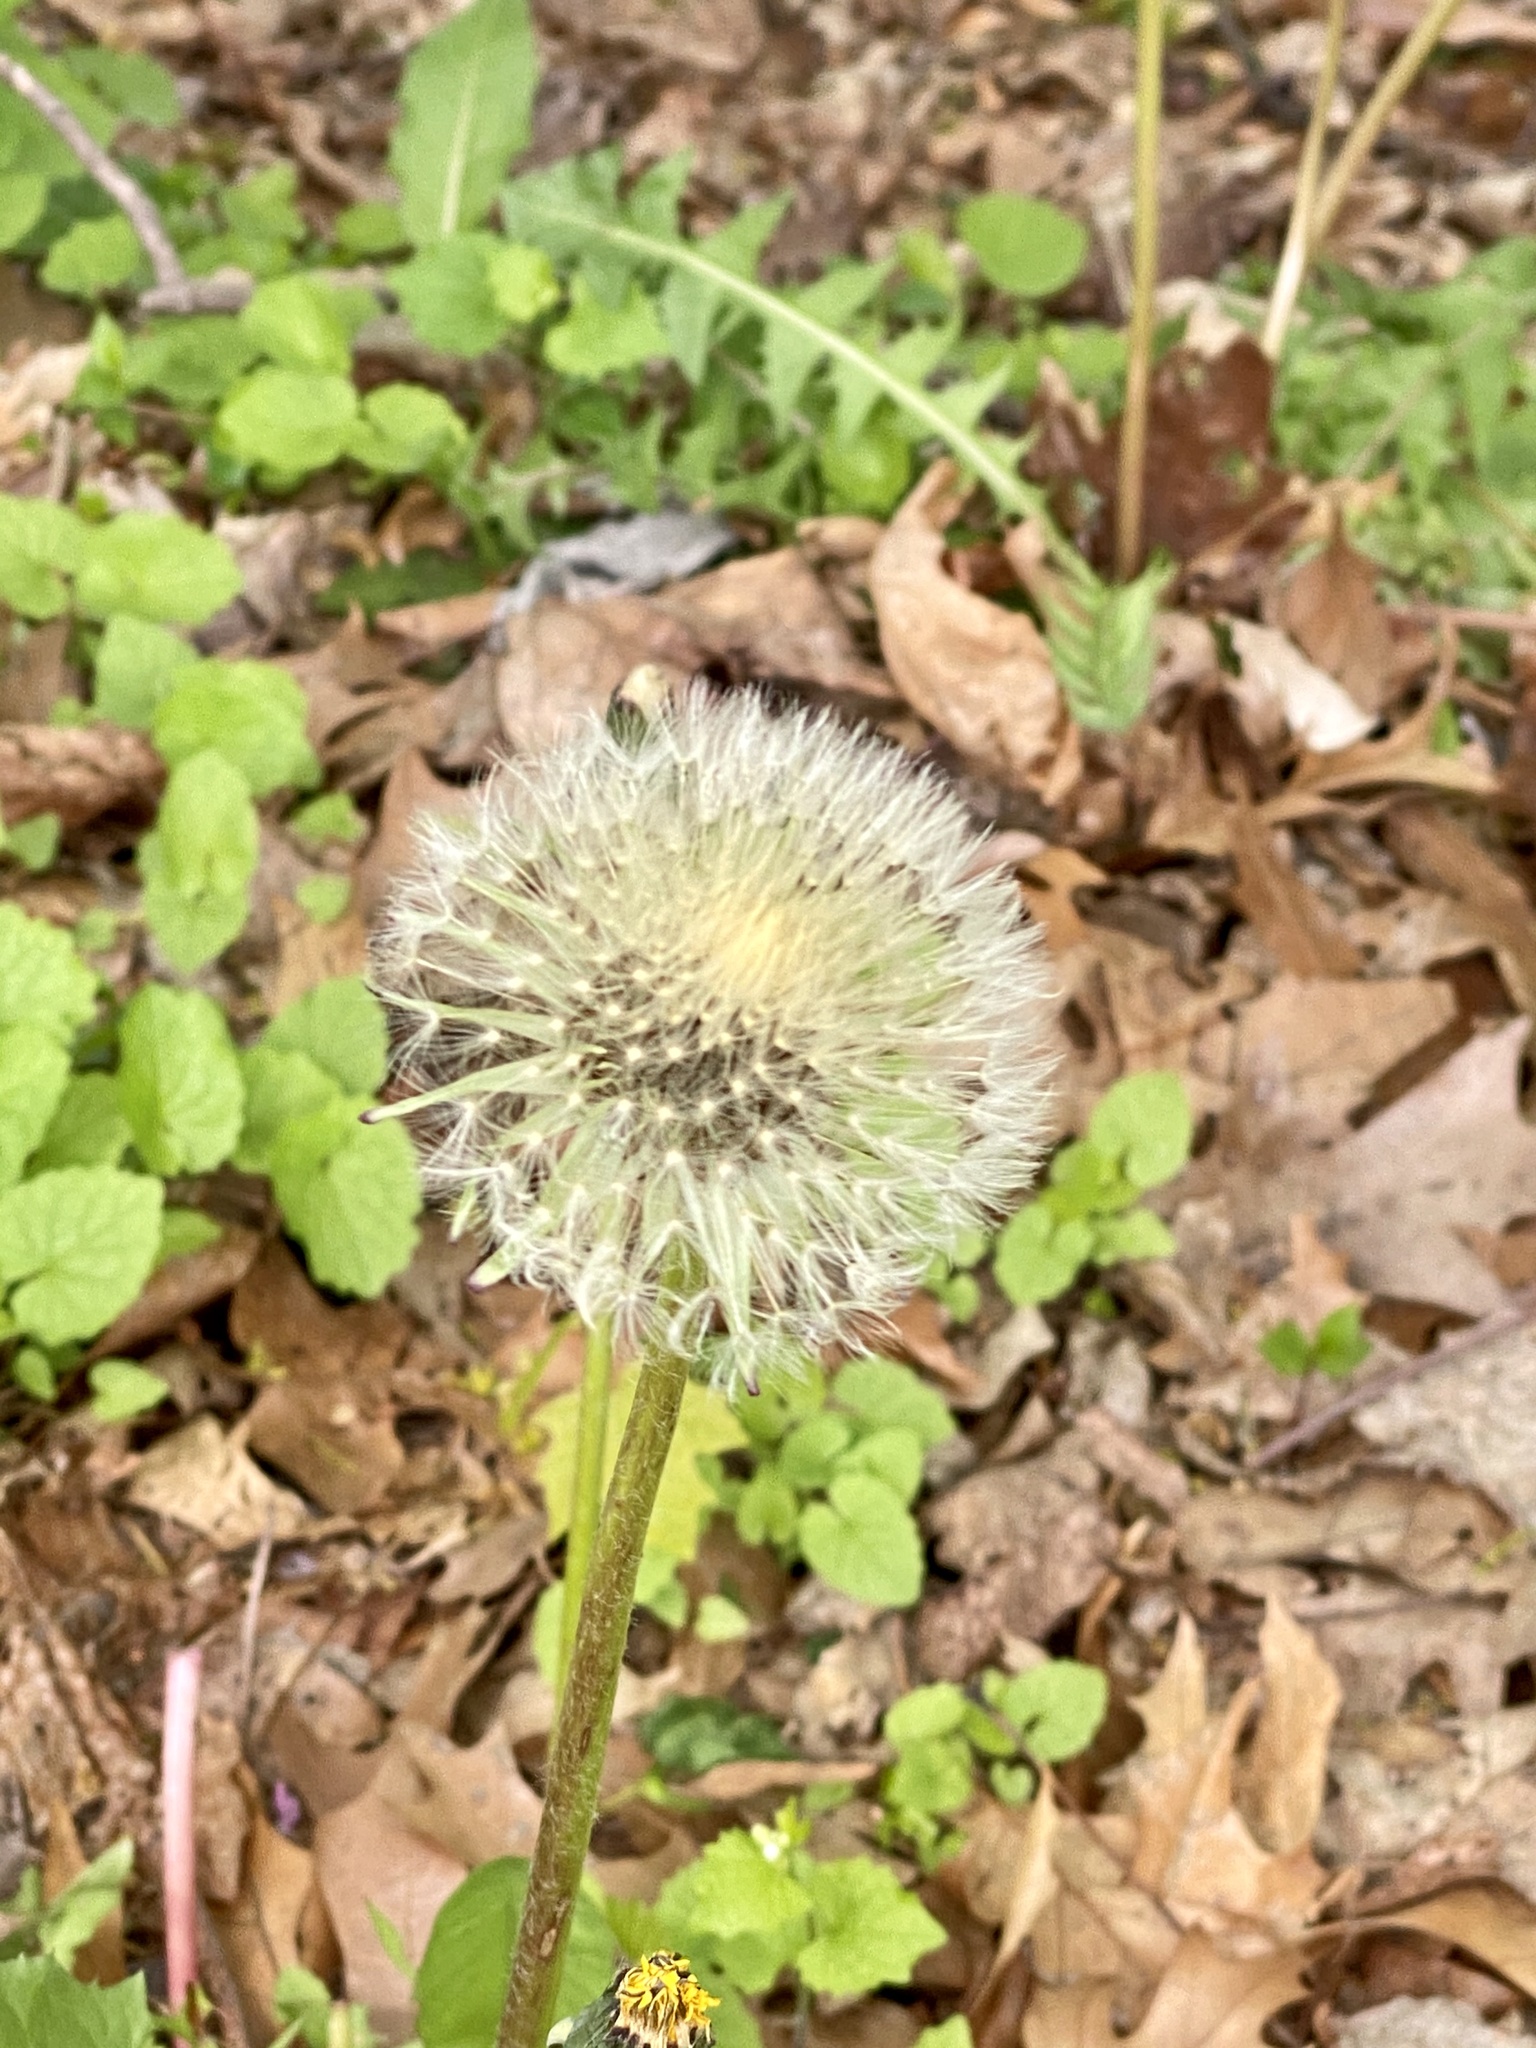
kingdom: Plantae
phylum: Tracheophyta
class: Magnoliopsida
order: Asterales
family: Asteraceae
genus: Taraxacum
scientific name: Taraxacum officinale
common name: Common dandelion
